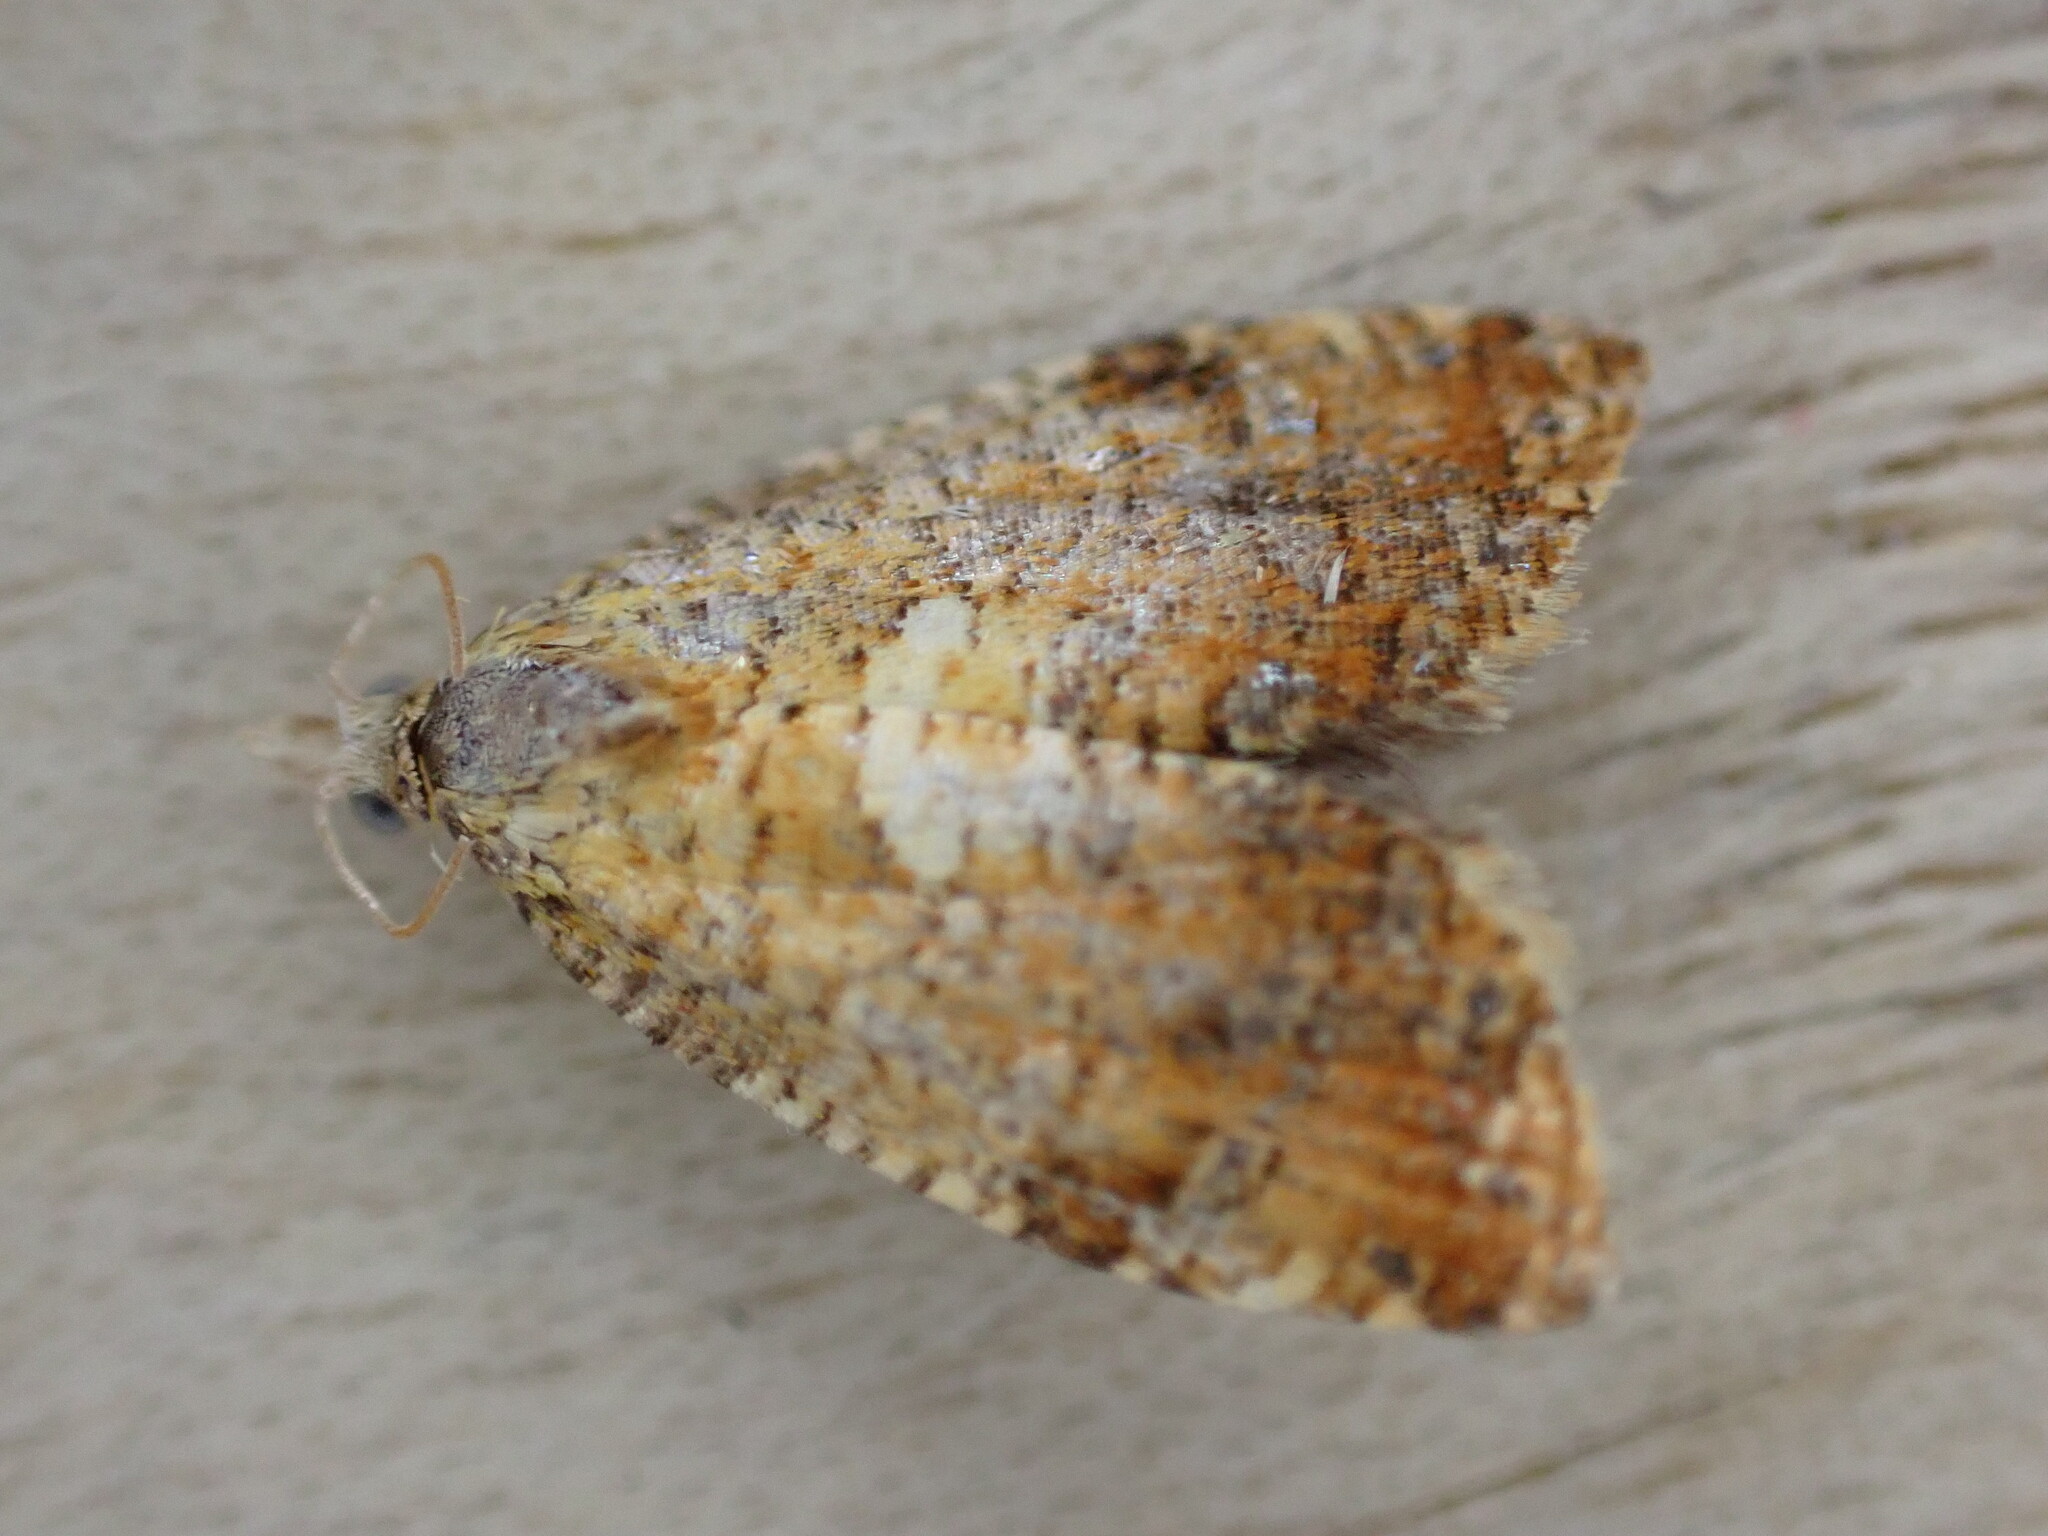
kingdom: Animalia
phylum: Arthropoda
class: Insecta
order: Lepidoptera
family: Tortricidae
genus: Pseudargyrotoza
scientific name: Pseudargyrotoza conwagana
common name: Yellow-spot twist
